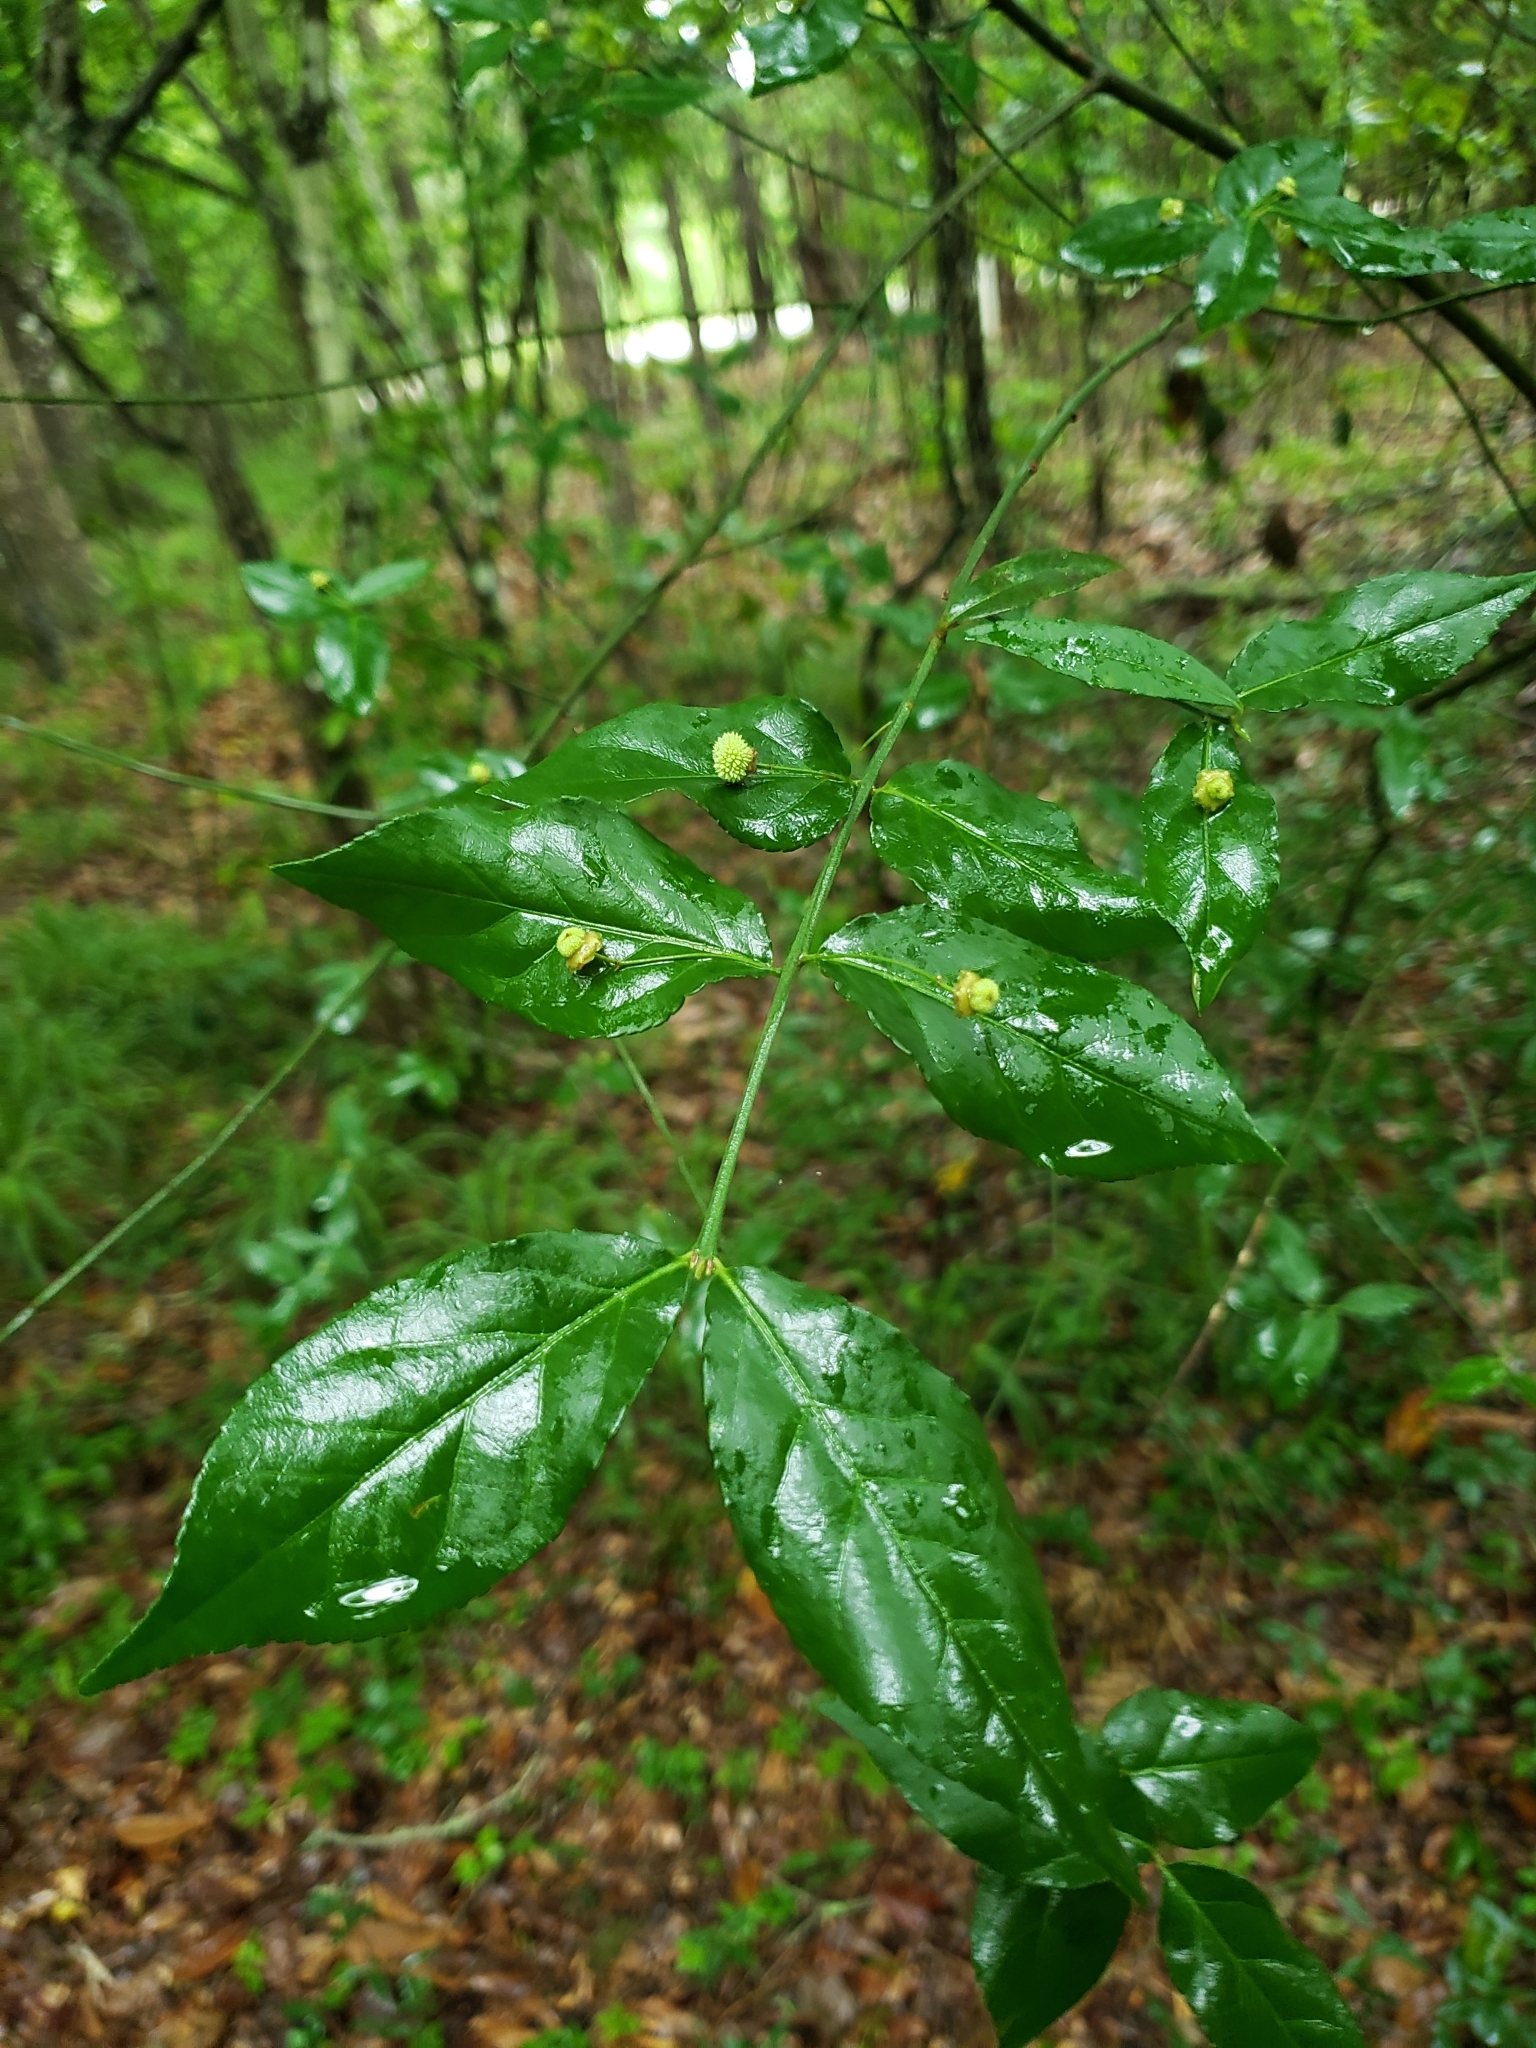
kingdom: Plantae
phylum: Tracheophyta
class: Magnoliopsida
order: Celastrales
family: Celastraceae
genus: Euonymus
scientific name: Euonymus americanus
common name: Bursting-heart
